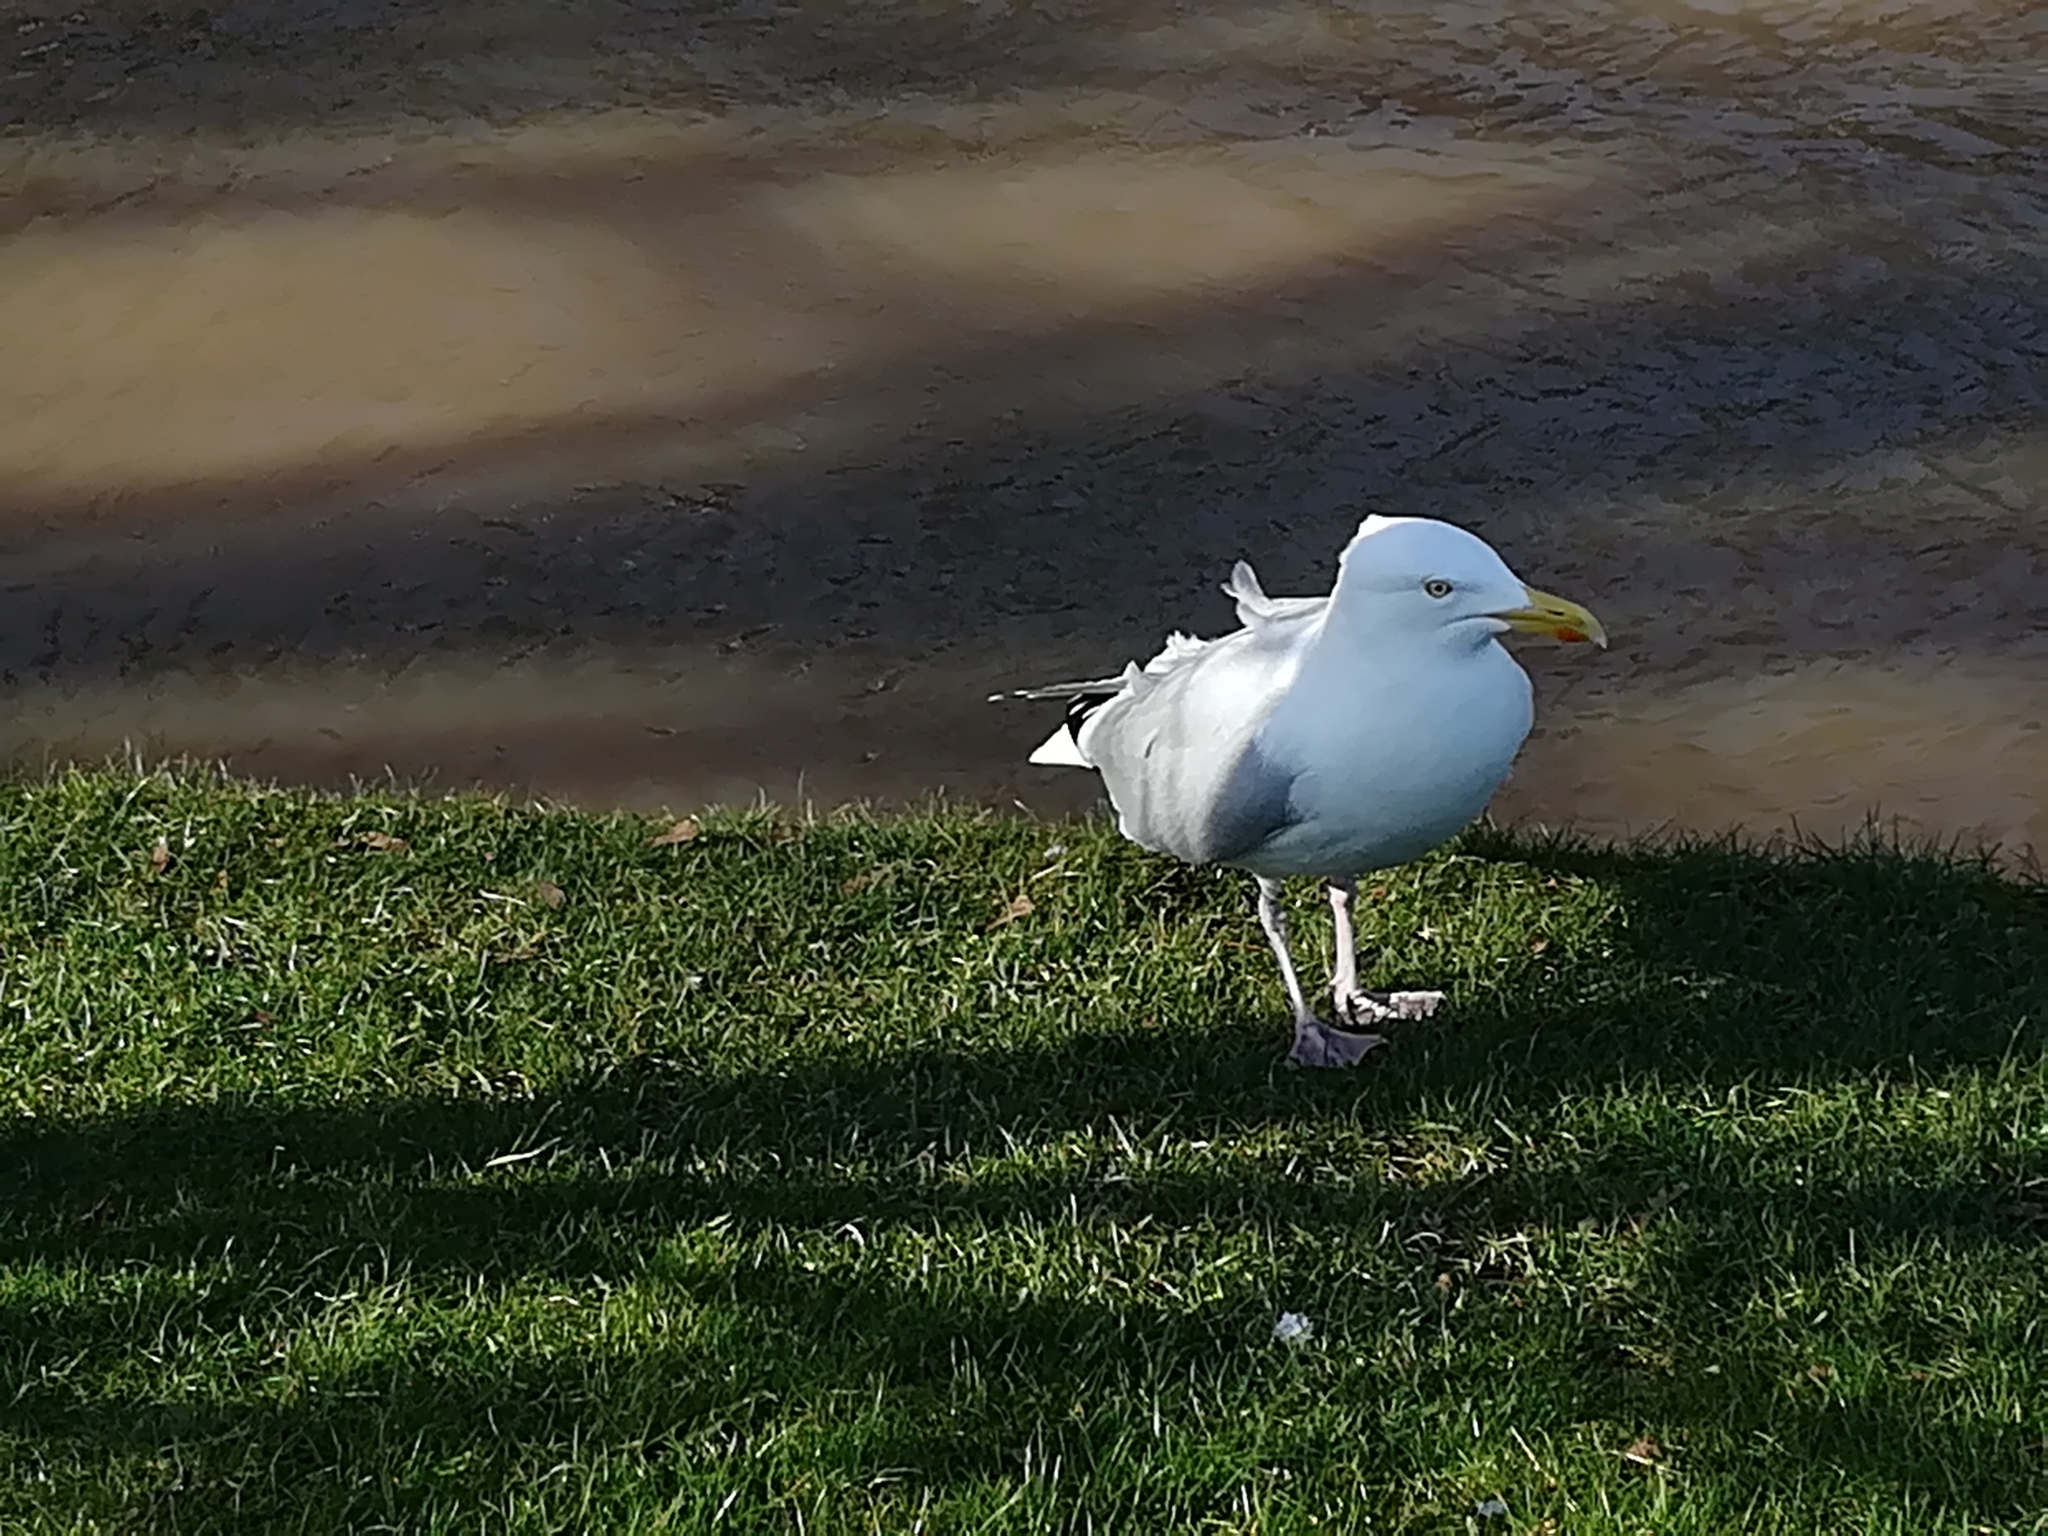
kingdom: Animalia
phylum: Chordata
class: Aves
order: Charadriiformes
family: Laridae
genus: Larus
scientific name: Larus argentatus
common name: Herring gull
